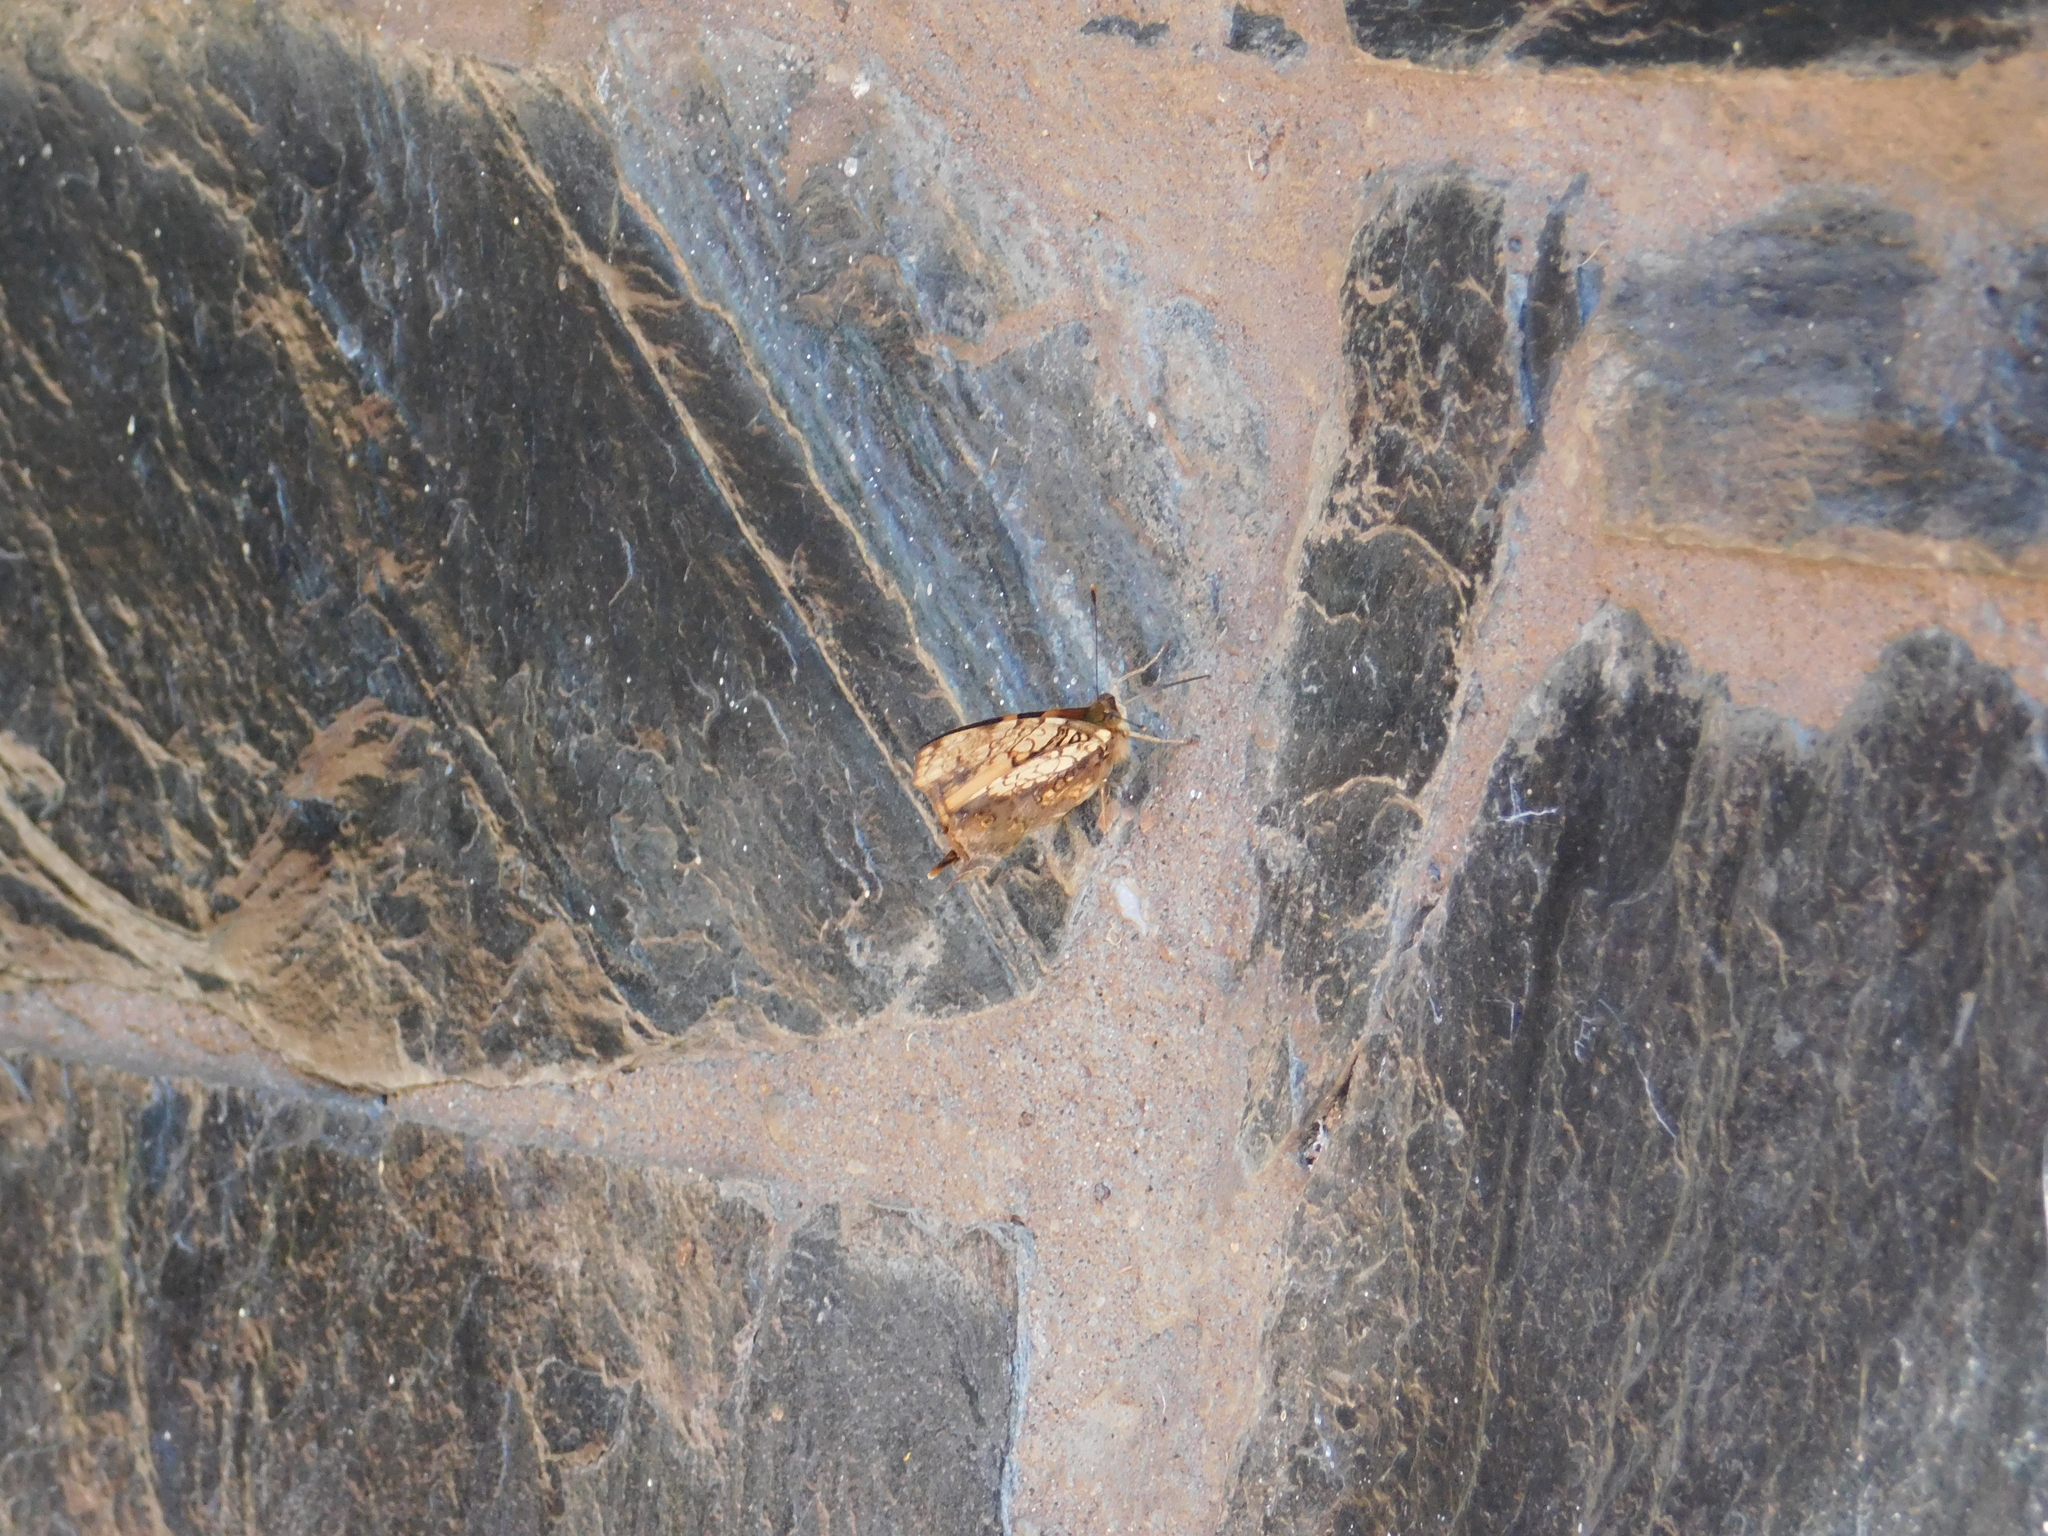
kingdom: Animalia
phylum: Arthropoda
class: Insecta
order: Lepidoptera
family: Nymphalidae
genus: Hypanartia
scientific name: Hypanartia lethe
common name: Orange mapwing
